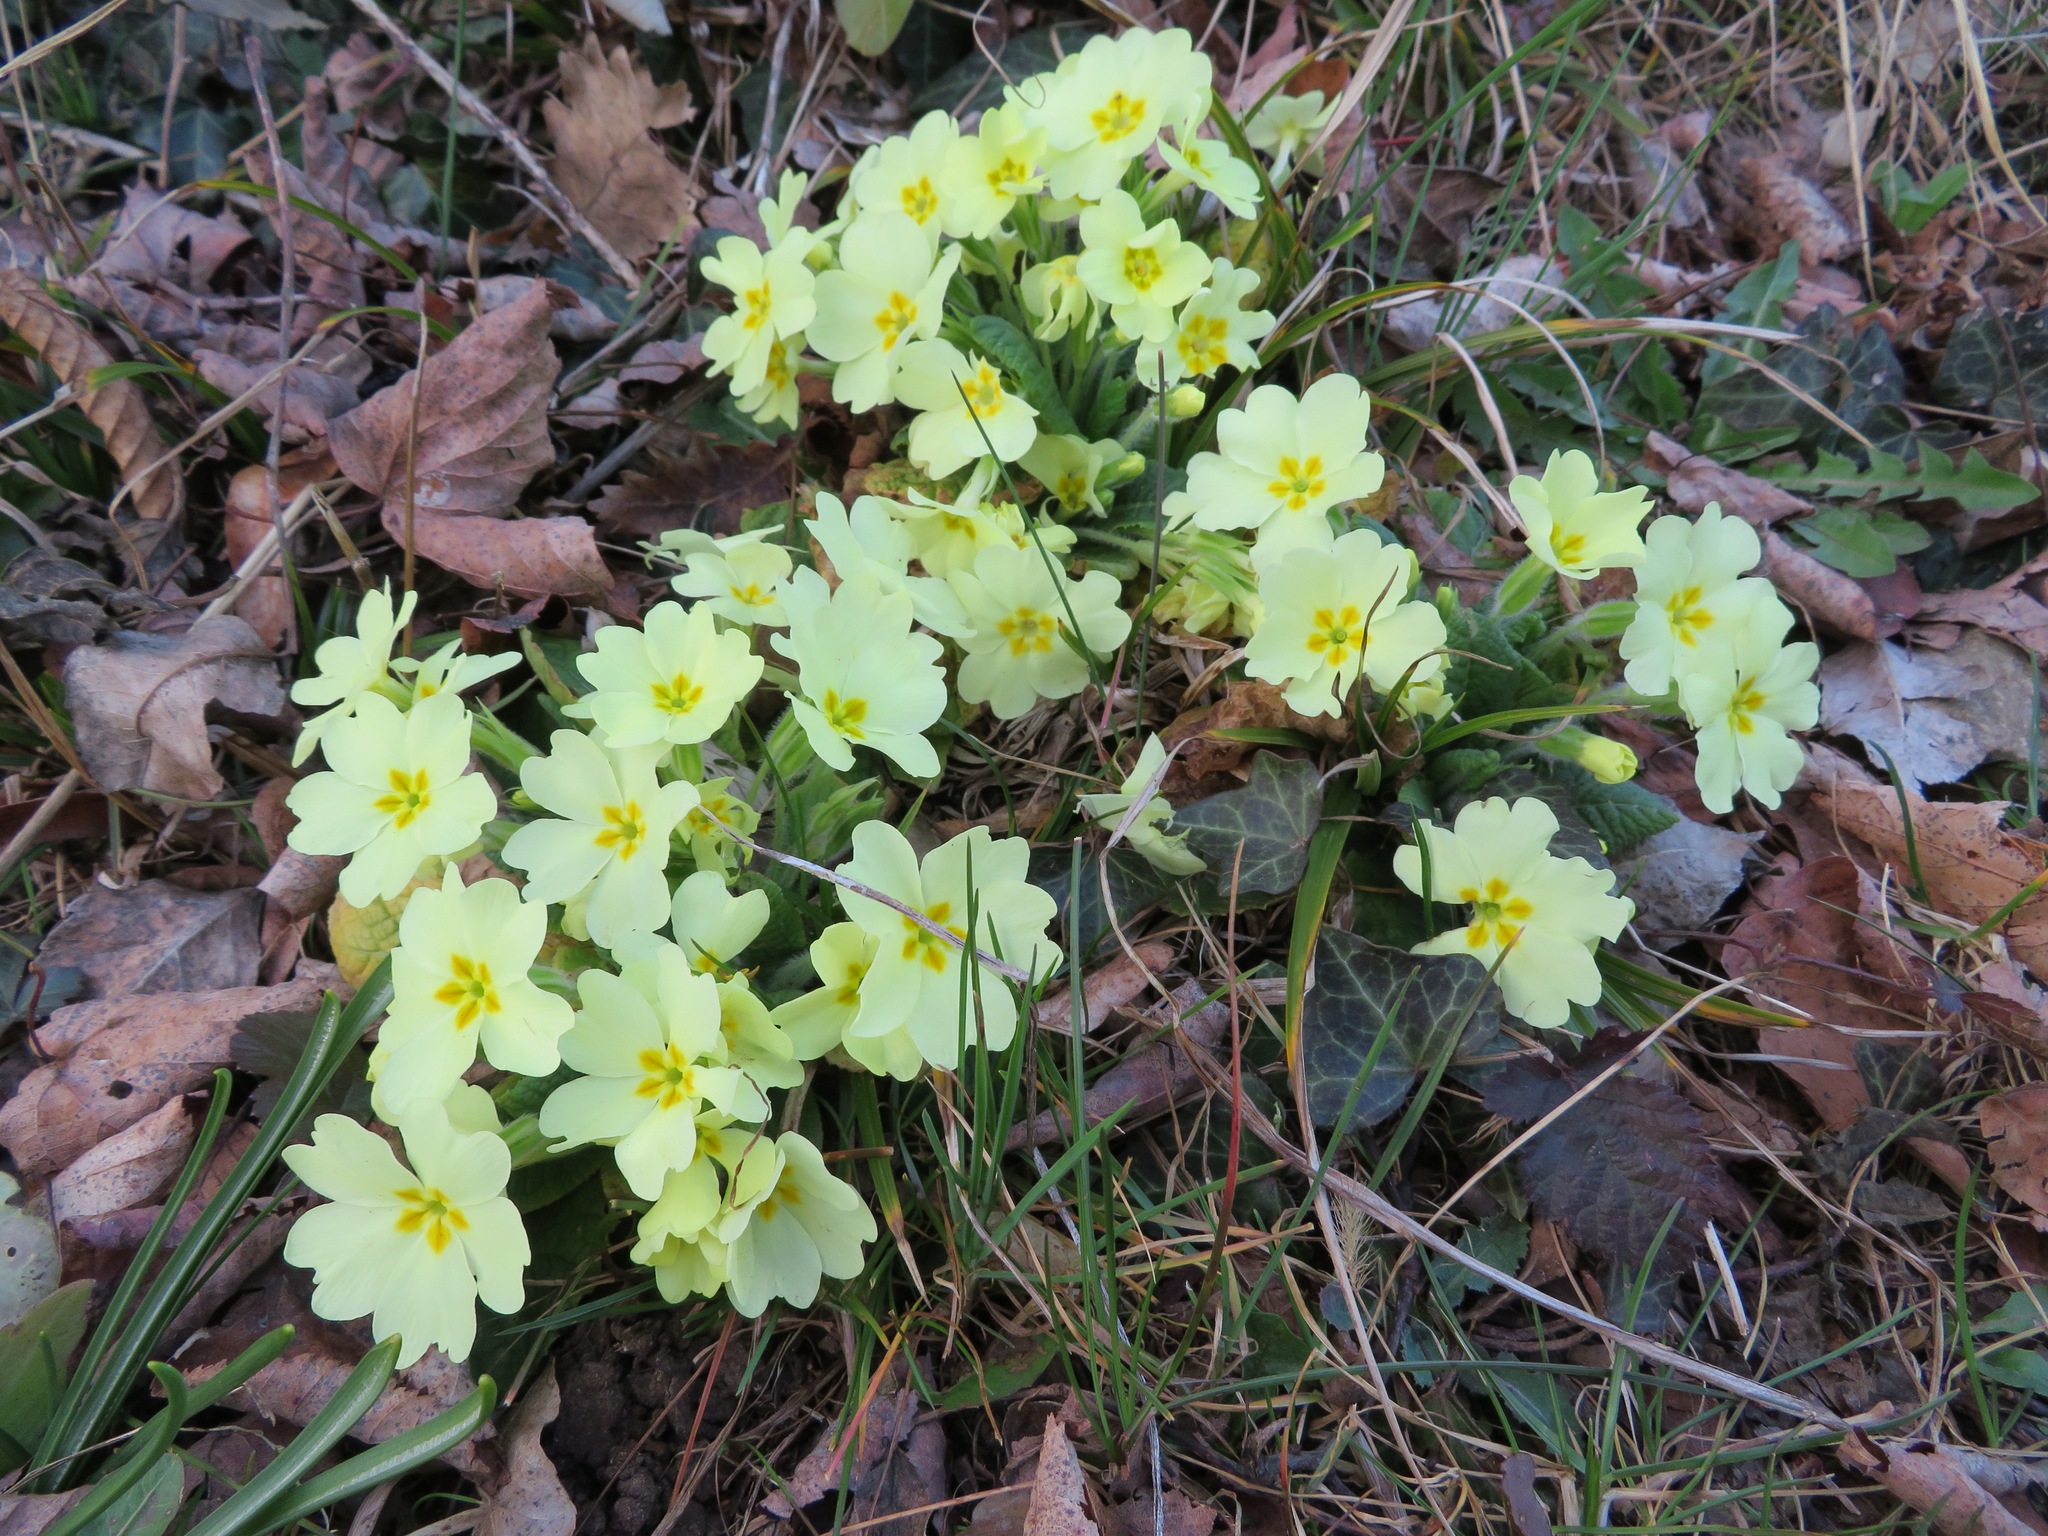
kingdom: Plantae
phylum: Tracheophyta
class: Magnoliopsida
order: Ericales
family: Primulaceae
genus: Primula
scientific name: Primula vulgaris
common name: Primrose
